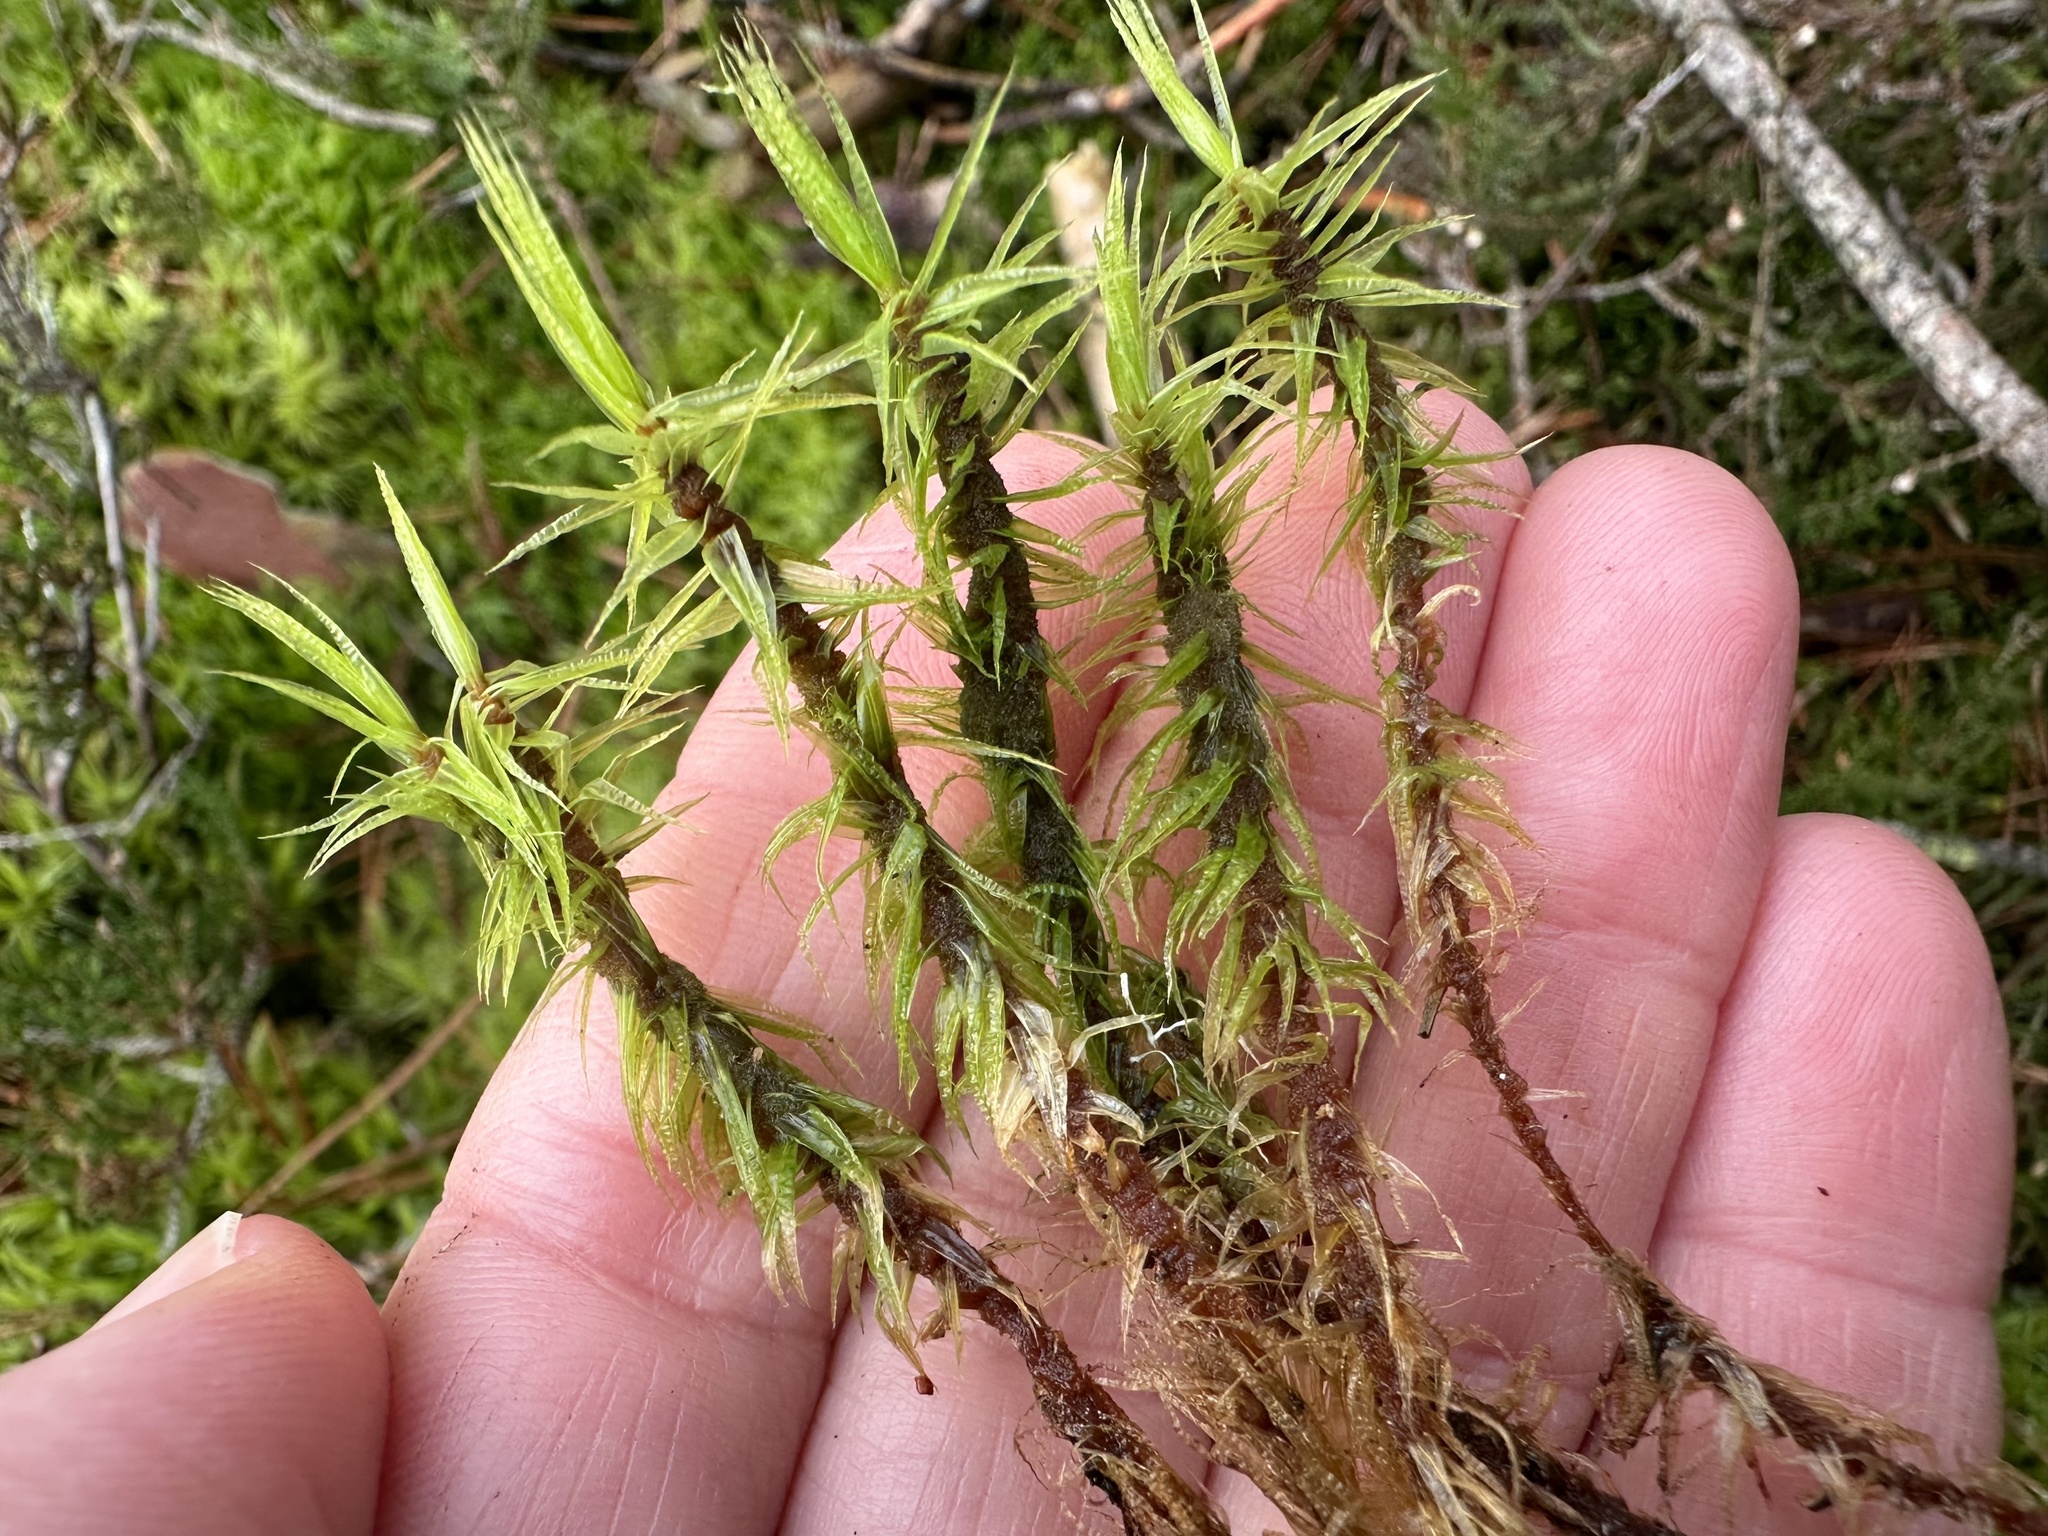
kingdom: Plantae
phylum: Bryophyta
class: Bryopsida
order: Dicranales
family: Dicranaceae
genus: Dicranum
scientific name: Dicranum polysetum
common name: Rugose fork-moss
